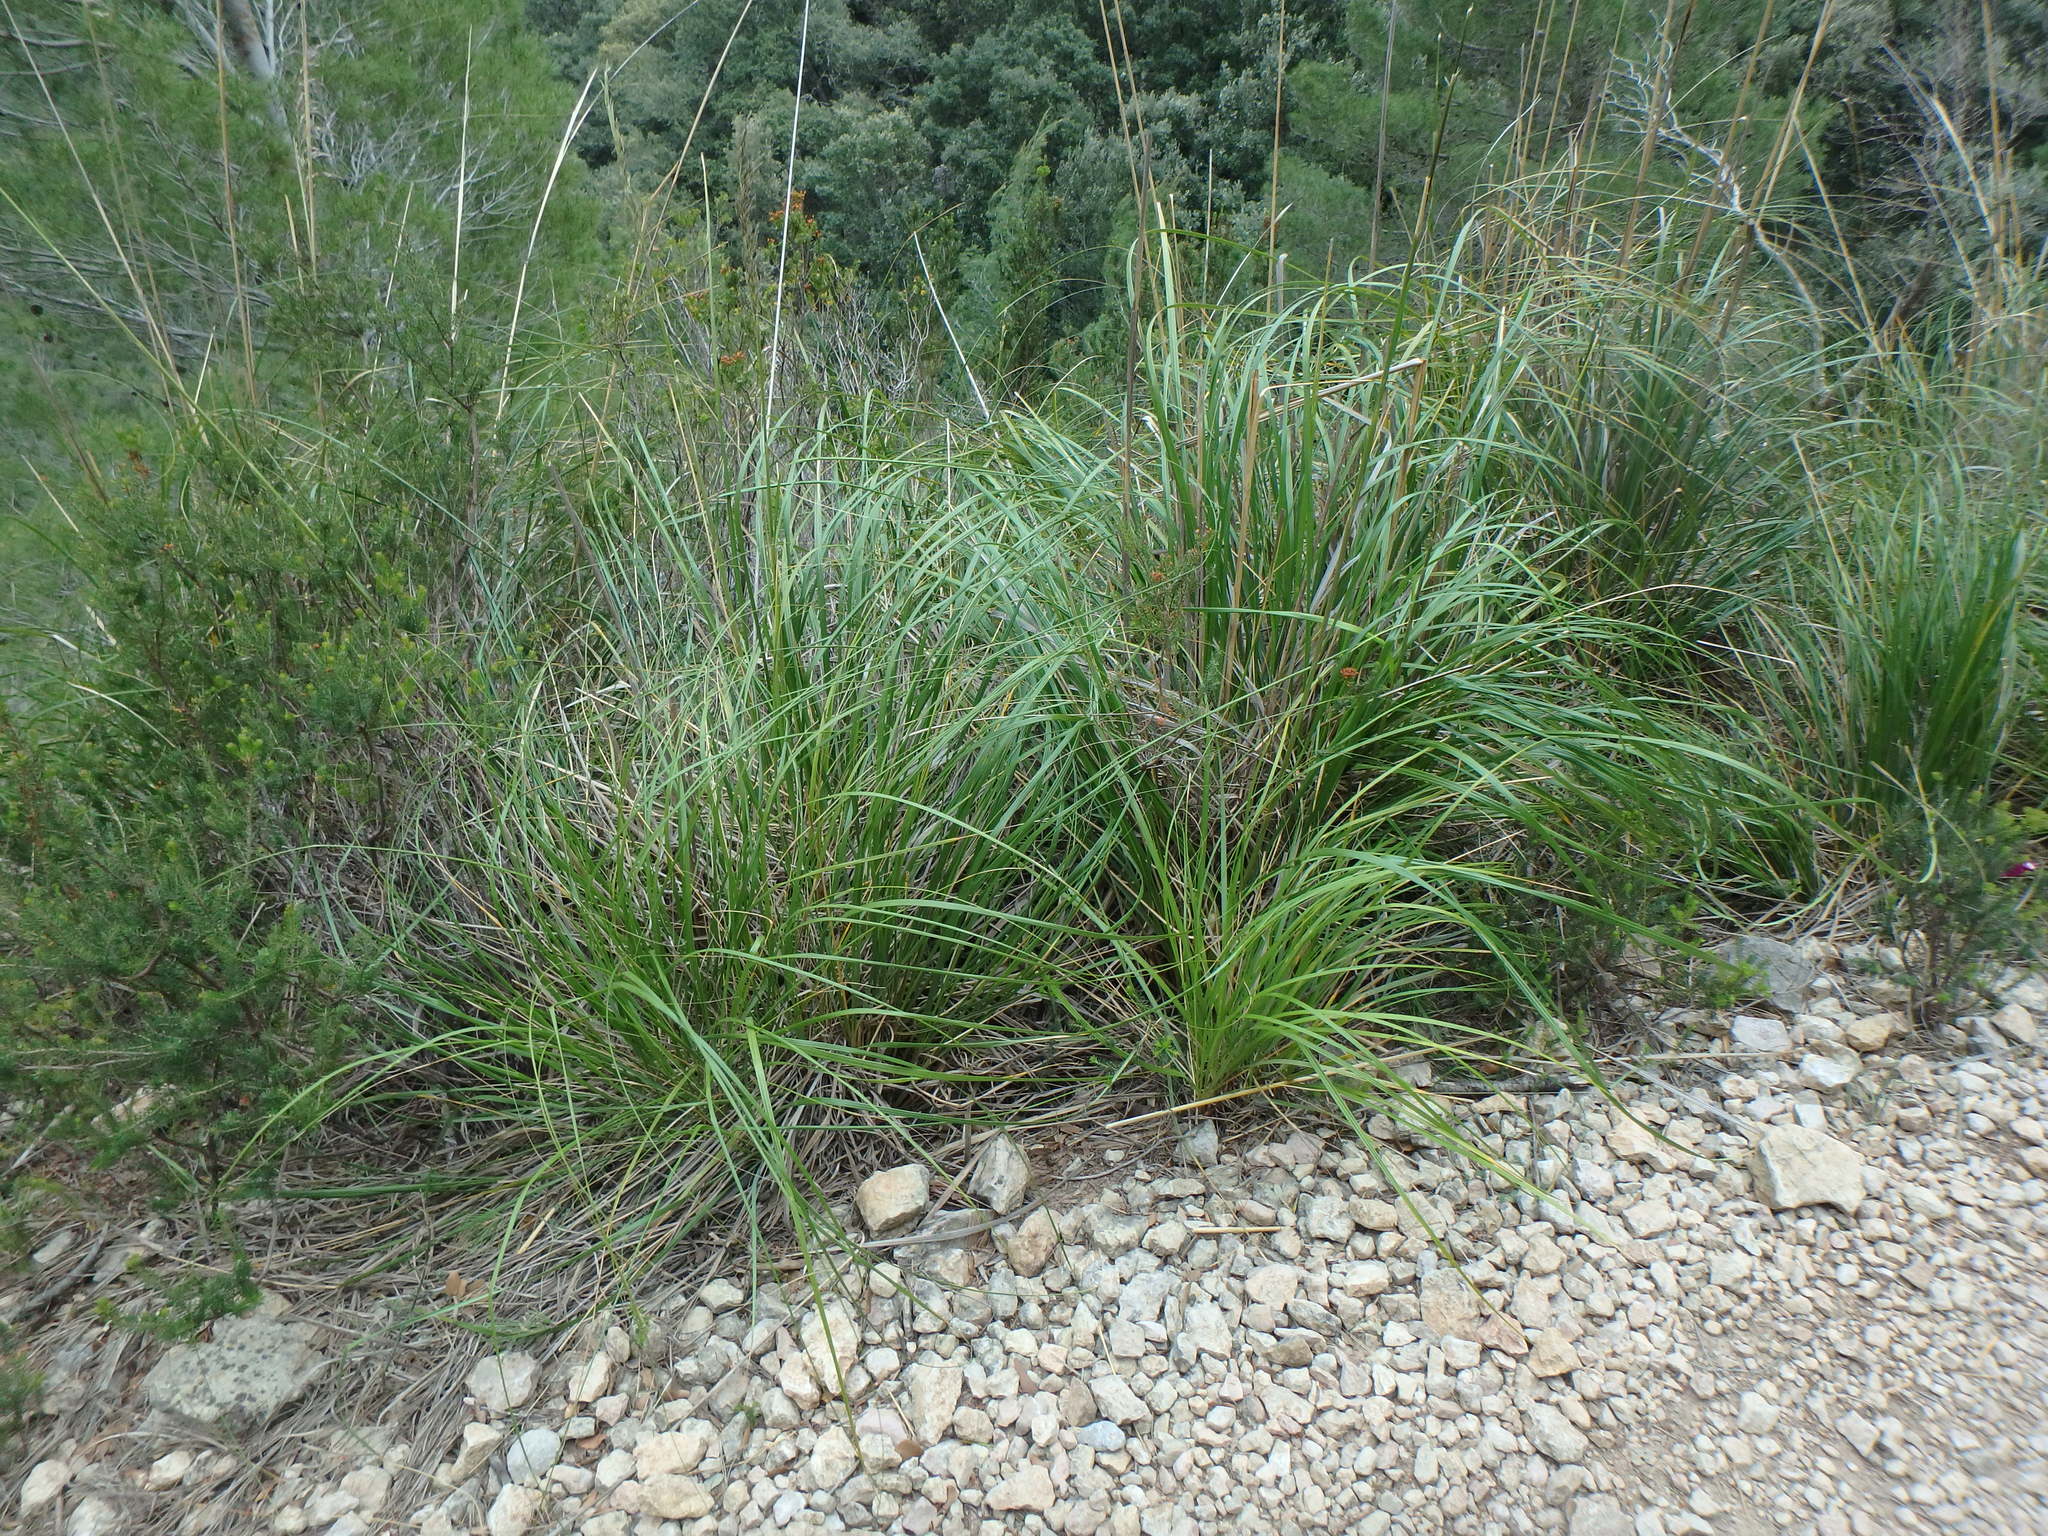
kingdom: Plantae
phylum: Tracheophyta
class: Liliopsida
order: Poales
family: Poaceae
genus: Ampelodesmos
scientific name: Ampelodesmos mauritanicus
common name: Mauritanian grass
